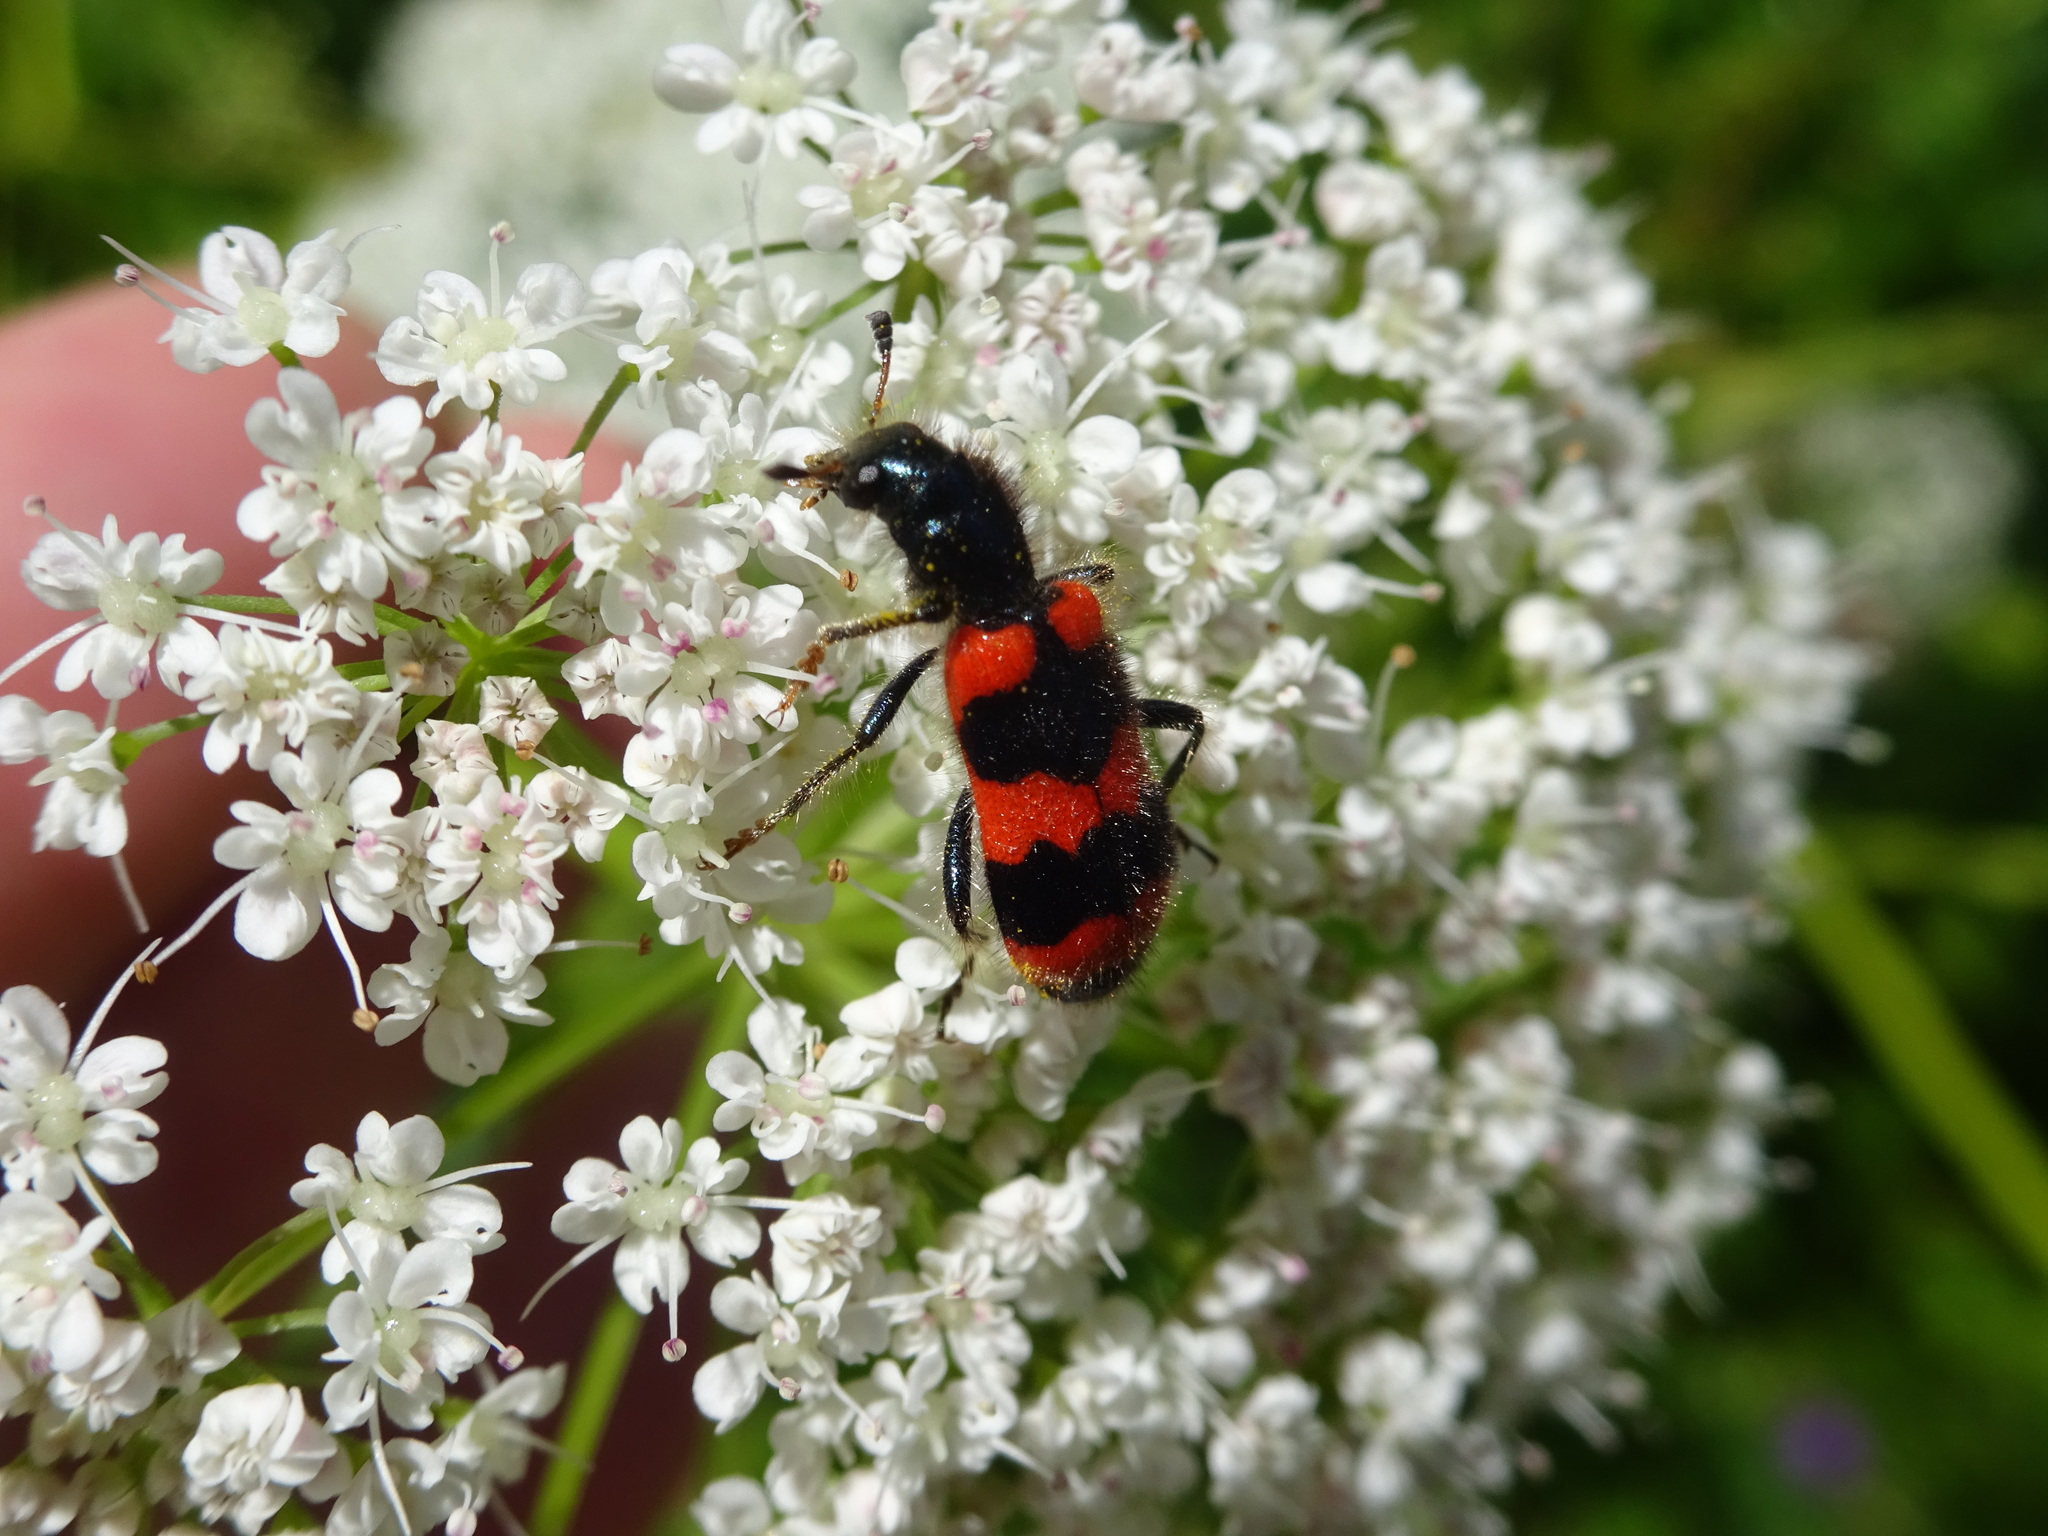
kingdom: Animalia
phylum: Arthropoda
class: Insecta
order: Coleoptera
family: Cleridae
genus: Trichodes
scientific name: Trichodes apiarius
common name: Bee-eating beetle
